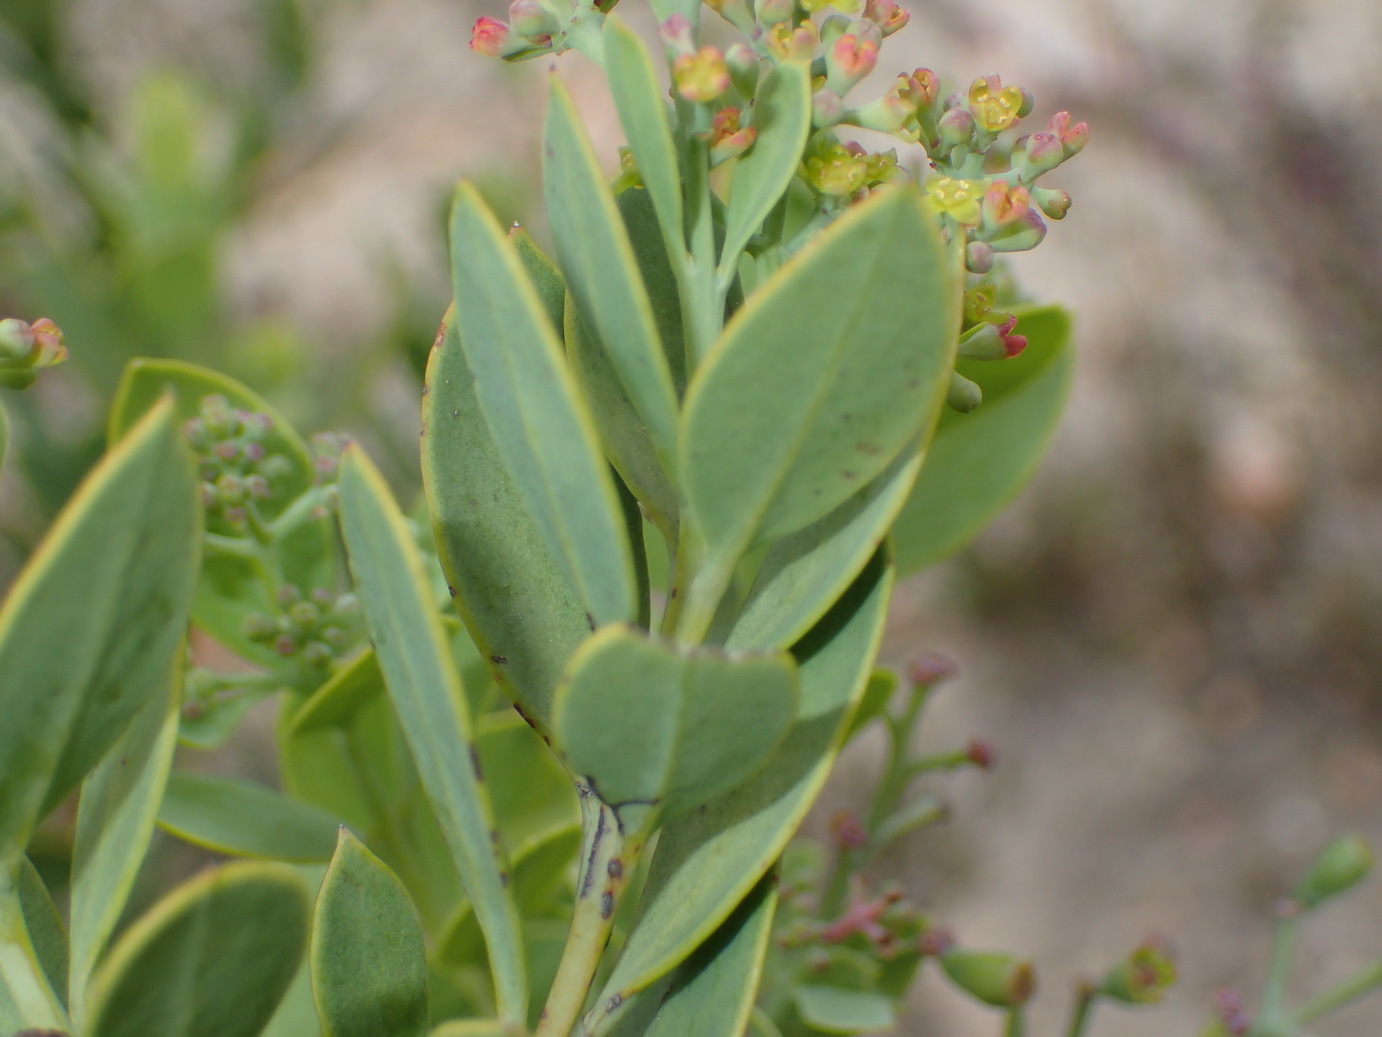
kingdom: Plantae
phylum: Tracheophyta
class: Magnoliopsida
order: Santalales
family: Santalaceae
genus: Osyris
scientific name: Osyris compressa
